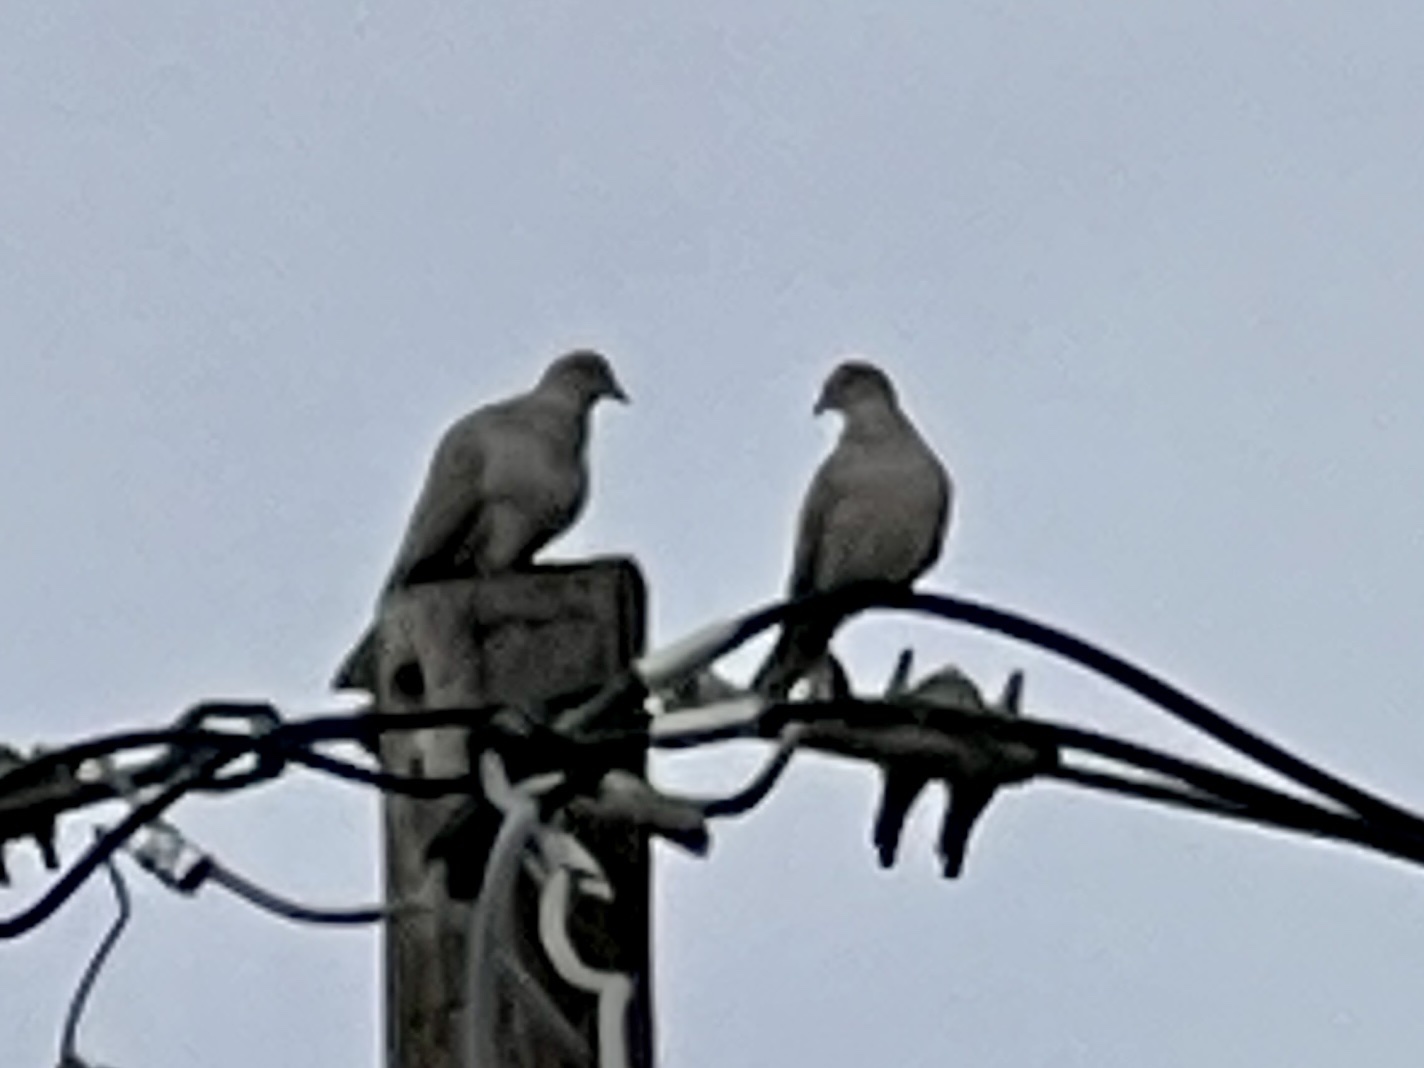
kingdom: Animalia
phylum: Chordata
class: Aves
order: Columbiformes
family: Columbidae
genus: Streptopelia
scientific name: Streptopelia decaocto
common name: Eurasian collared dove
